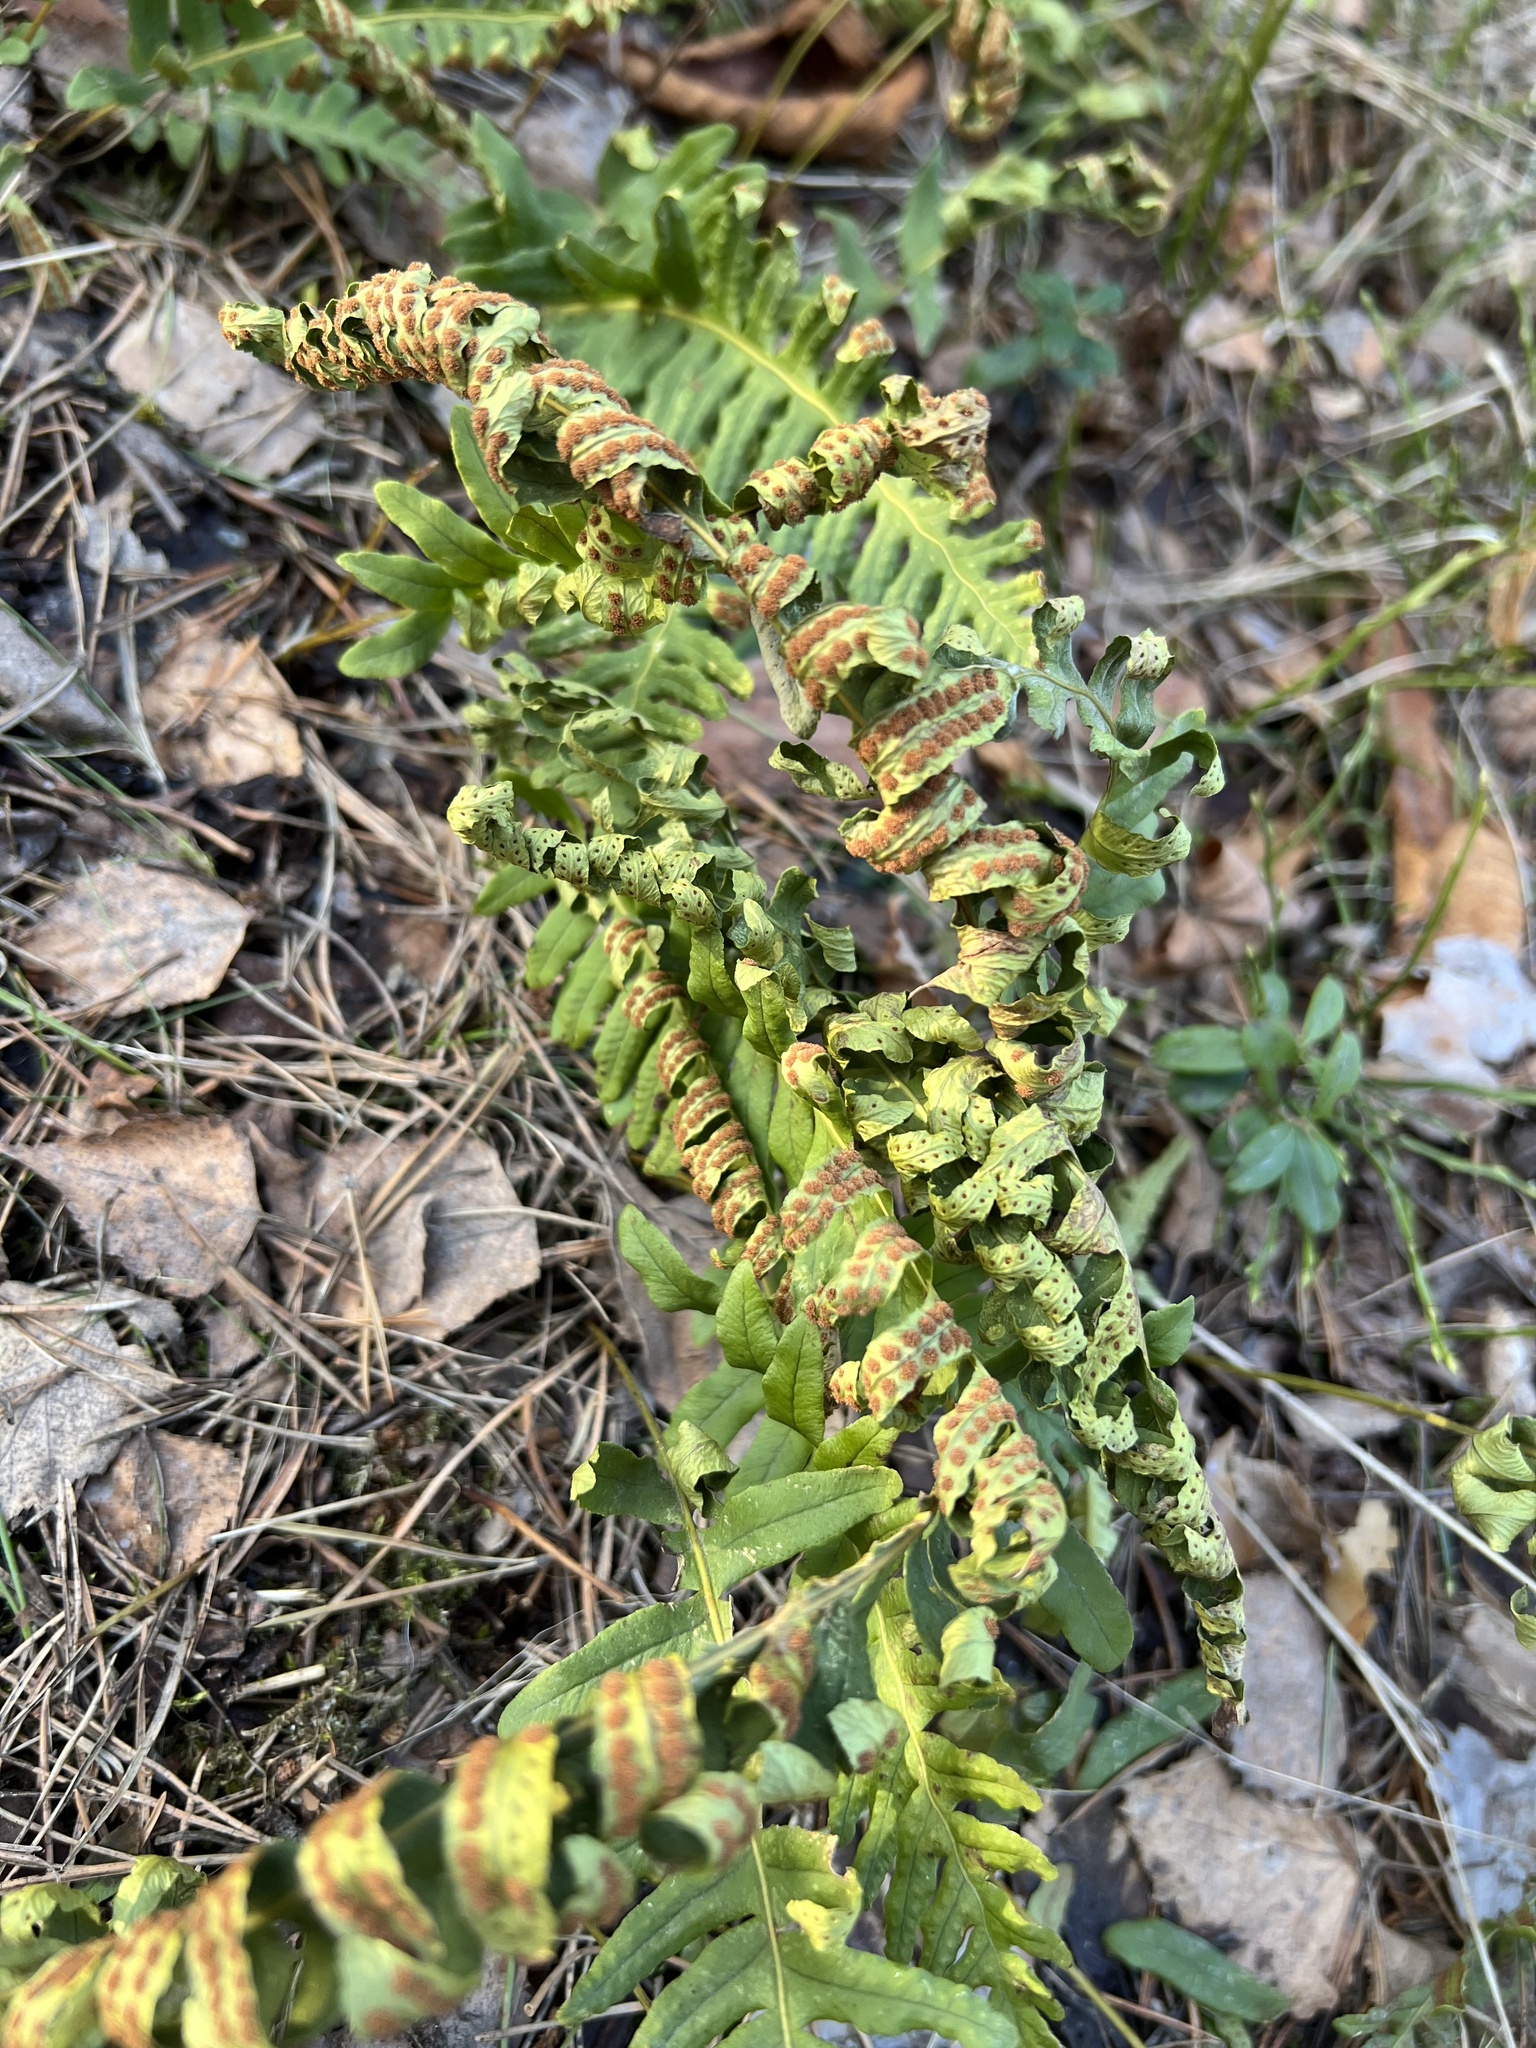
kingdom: Plantae
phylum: Tracheophyta
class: Polypodiopsida
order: Polypodiales
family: Polypodiaceae
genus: Polypodium
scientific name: Polypodium vulgare
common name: Common polypody
